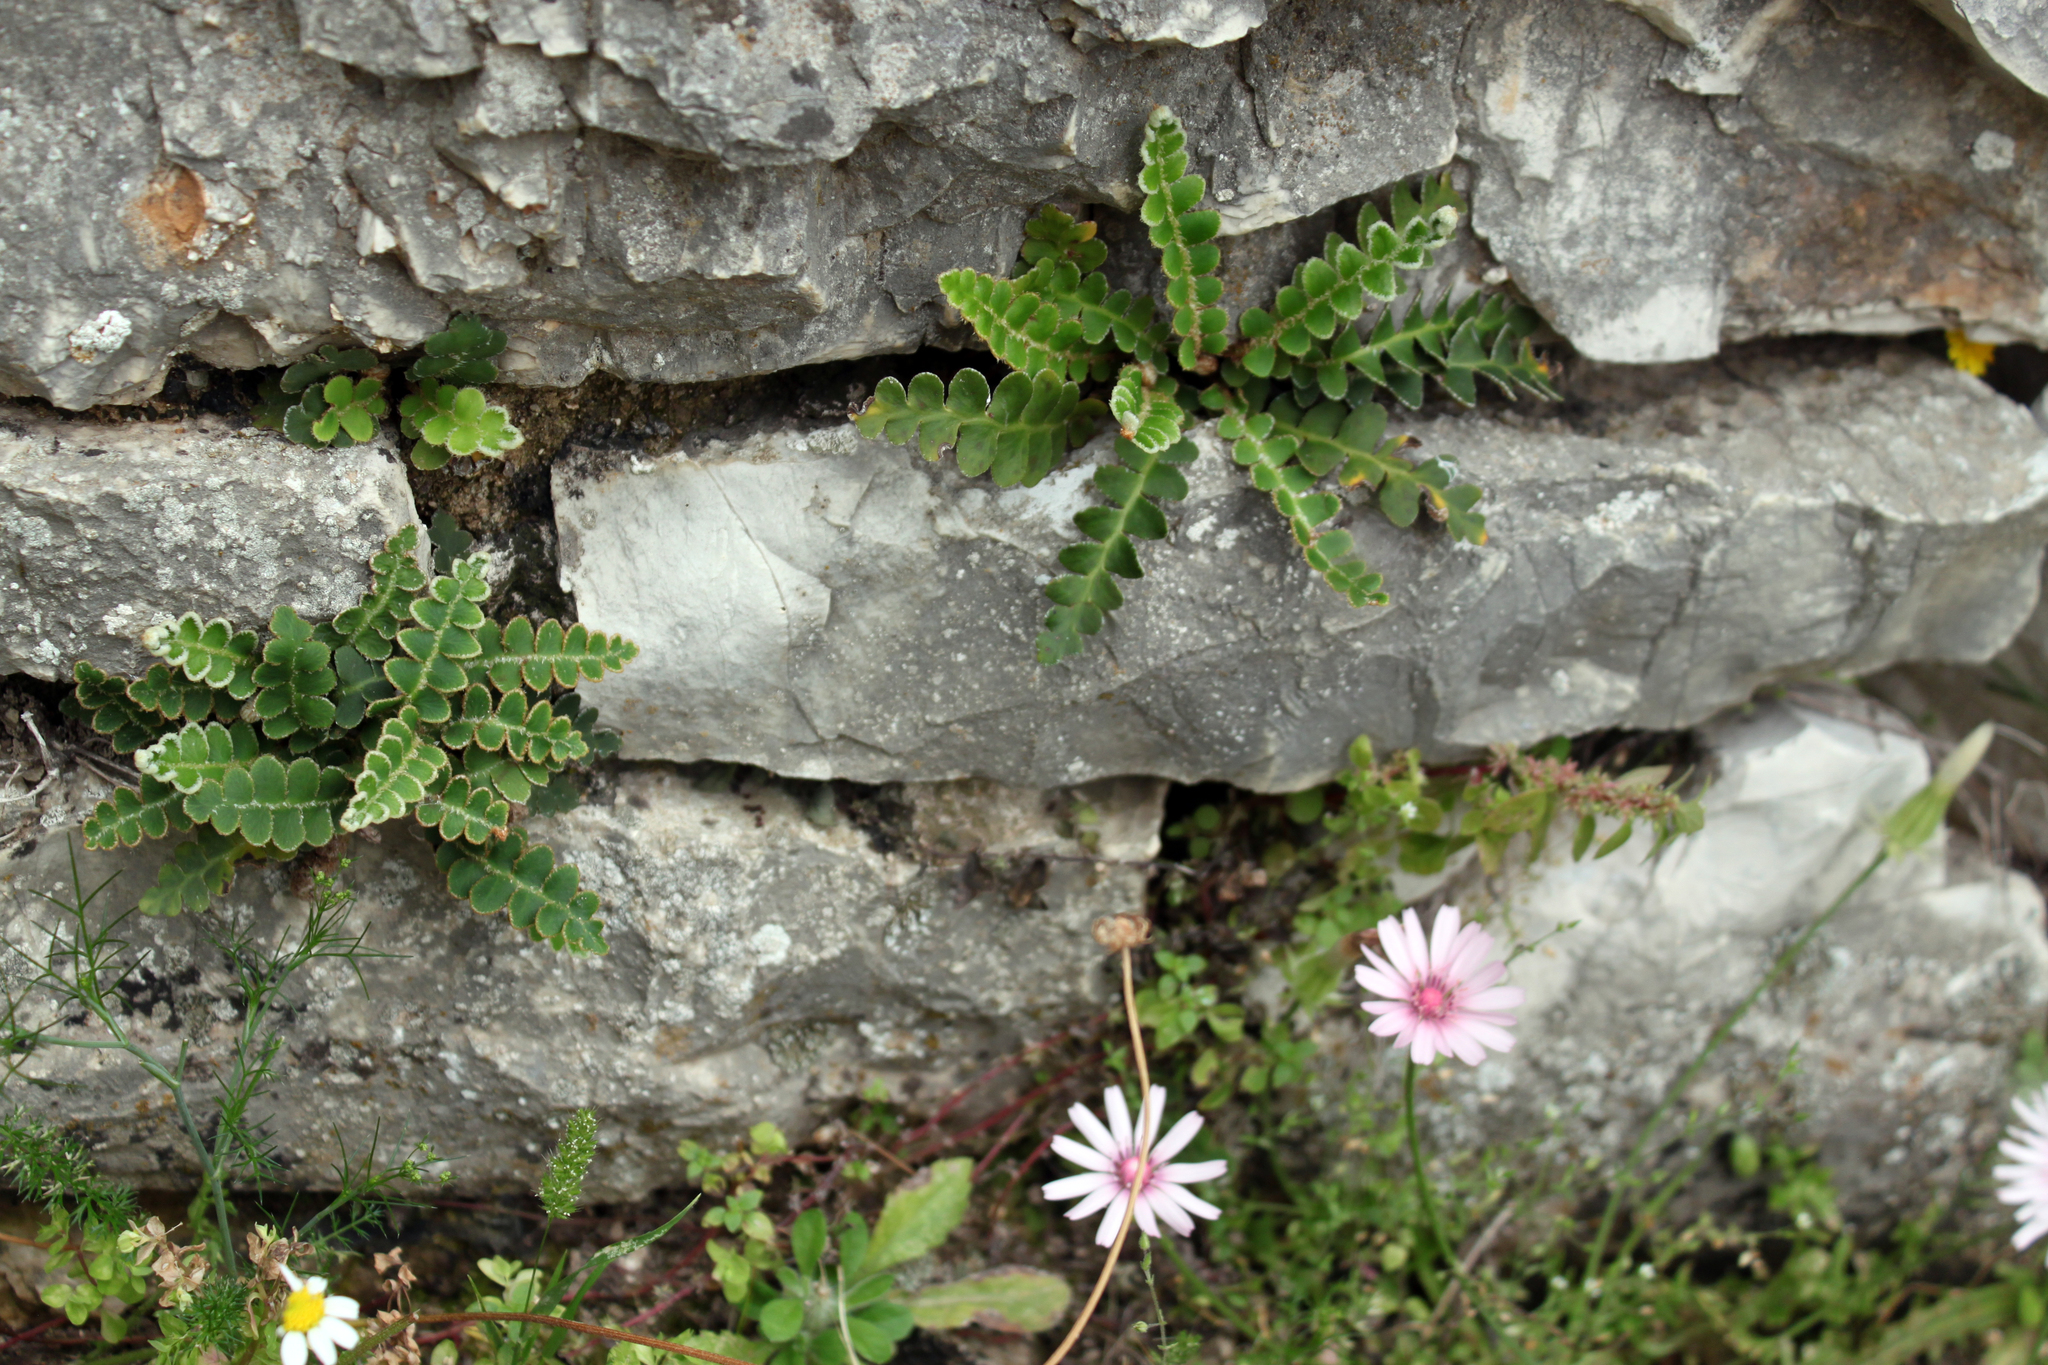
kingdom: Plantae
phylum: Tracheophyta
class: Polypodiopsida
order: Polypodiales
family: Aspleniaceae
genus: Asplenium
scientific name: Asplenium ceterach
